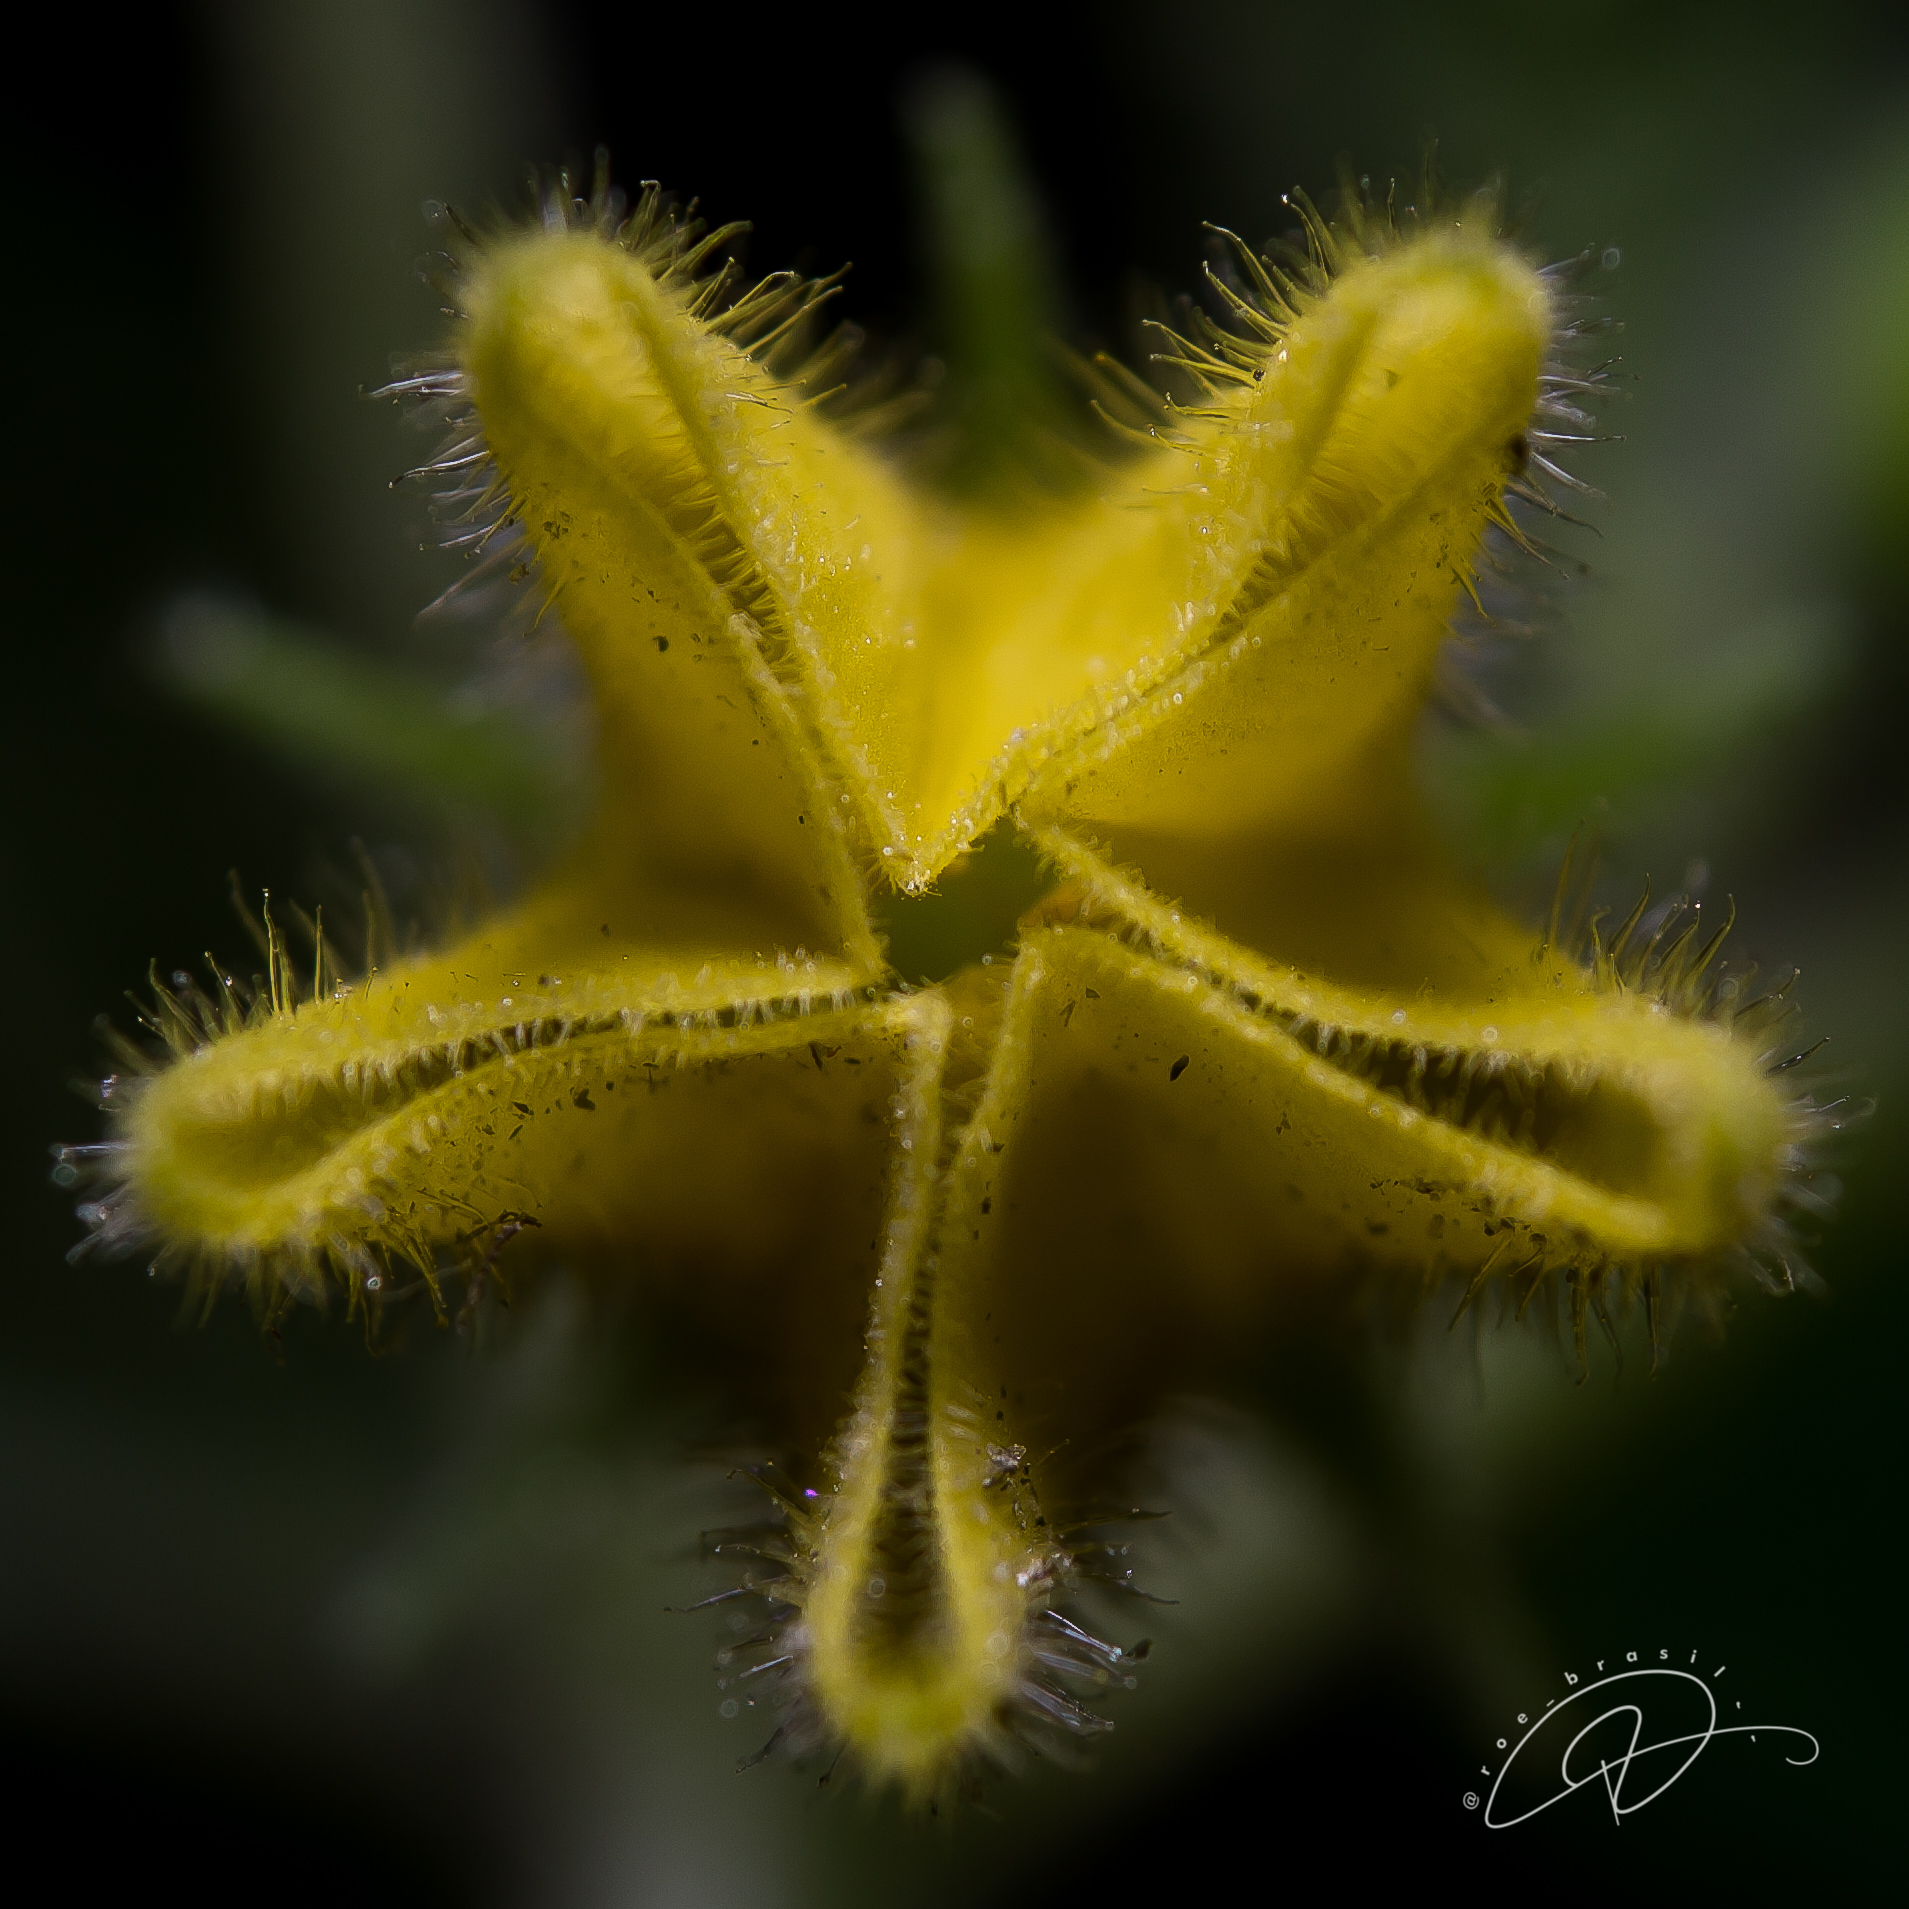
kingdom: Plantae
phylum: Tracheophyta
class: Magnoliopsida
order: Solanales
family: Solanaceae
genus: Physalis
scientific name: Physalis
